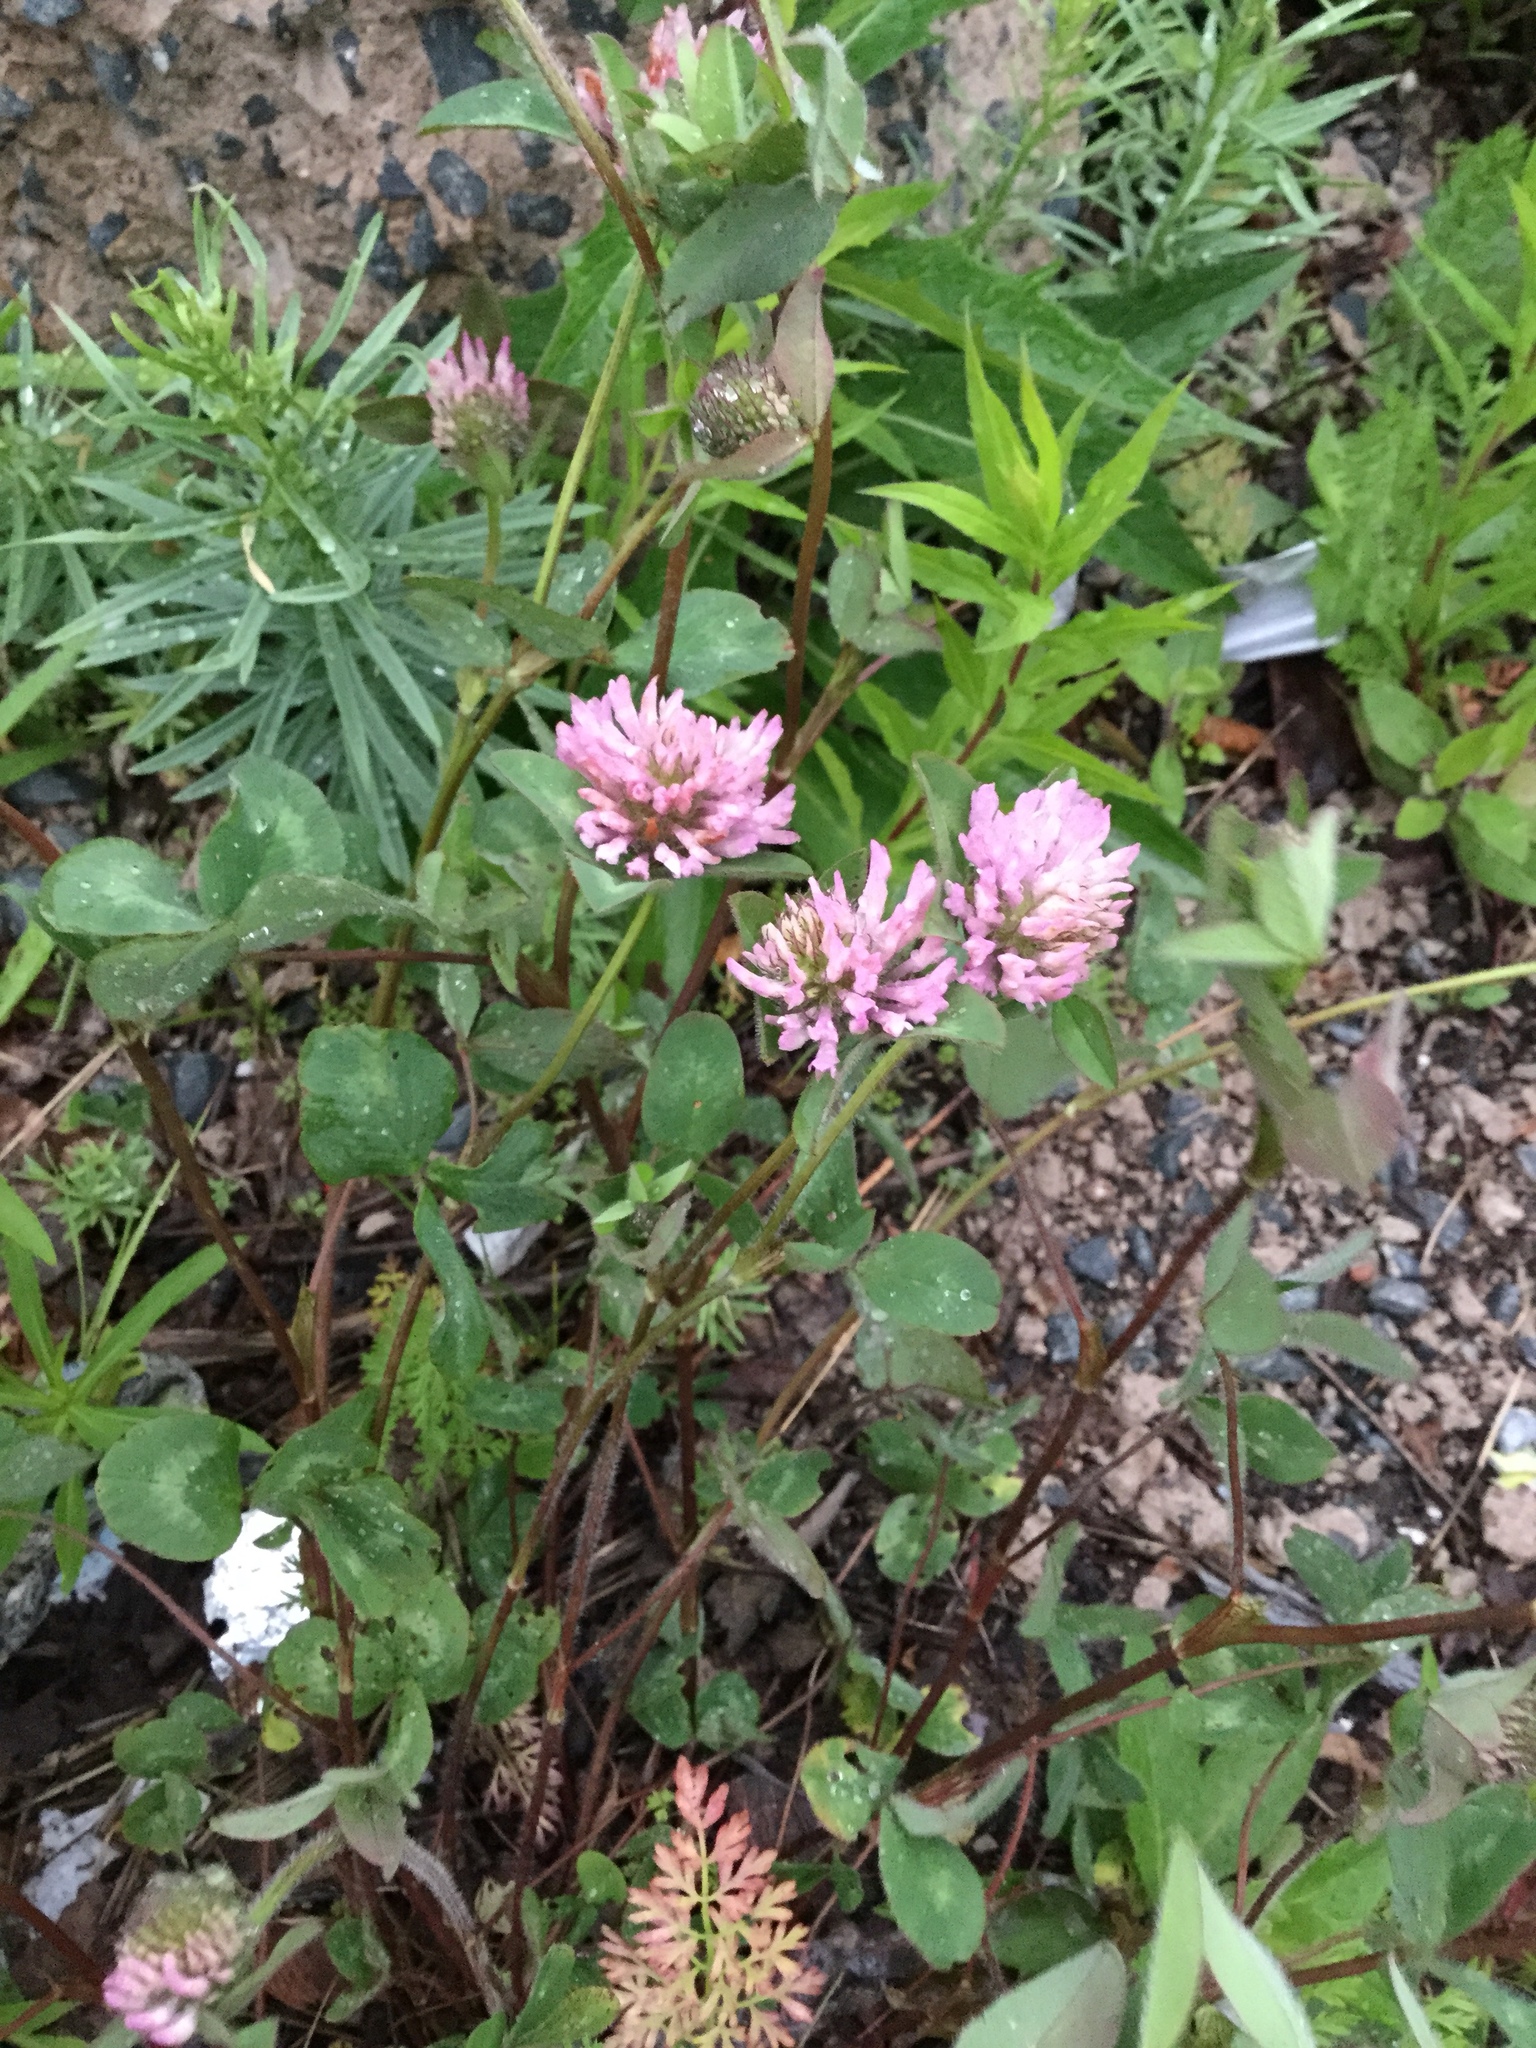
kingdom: Plantae
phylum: Tracheophyta
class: Magnoliopsida
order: Fabales
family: Fabaceae
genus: Trifolium
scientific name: Trifolium pratense
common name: Red clover
